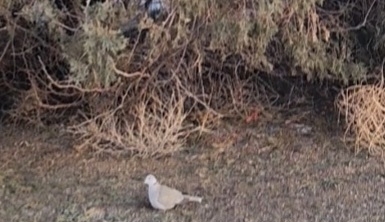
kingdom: Animalia
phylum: Chordata
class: Aves
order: Columbiformes
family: Columbidae
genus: Streptopelia
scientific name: Streptopelia decaocto
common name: Eurasian collared dove
